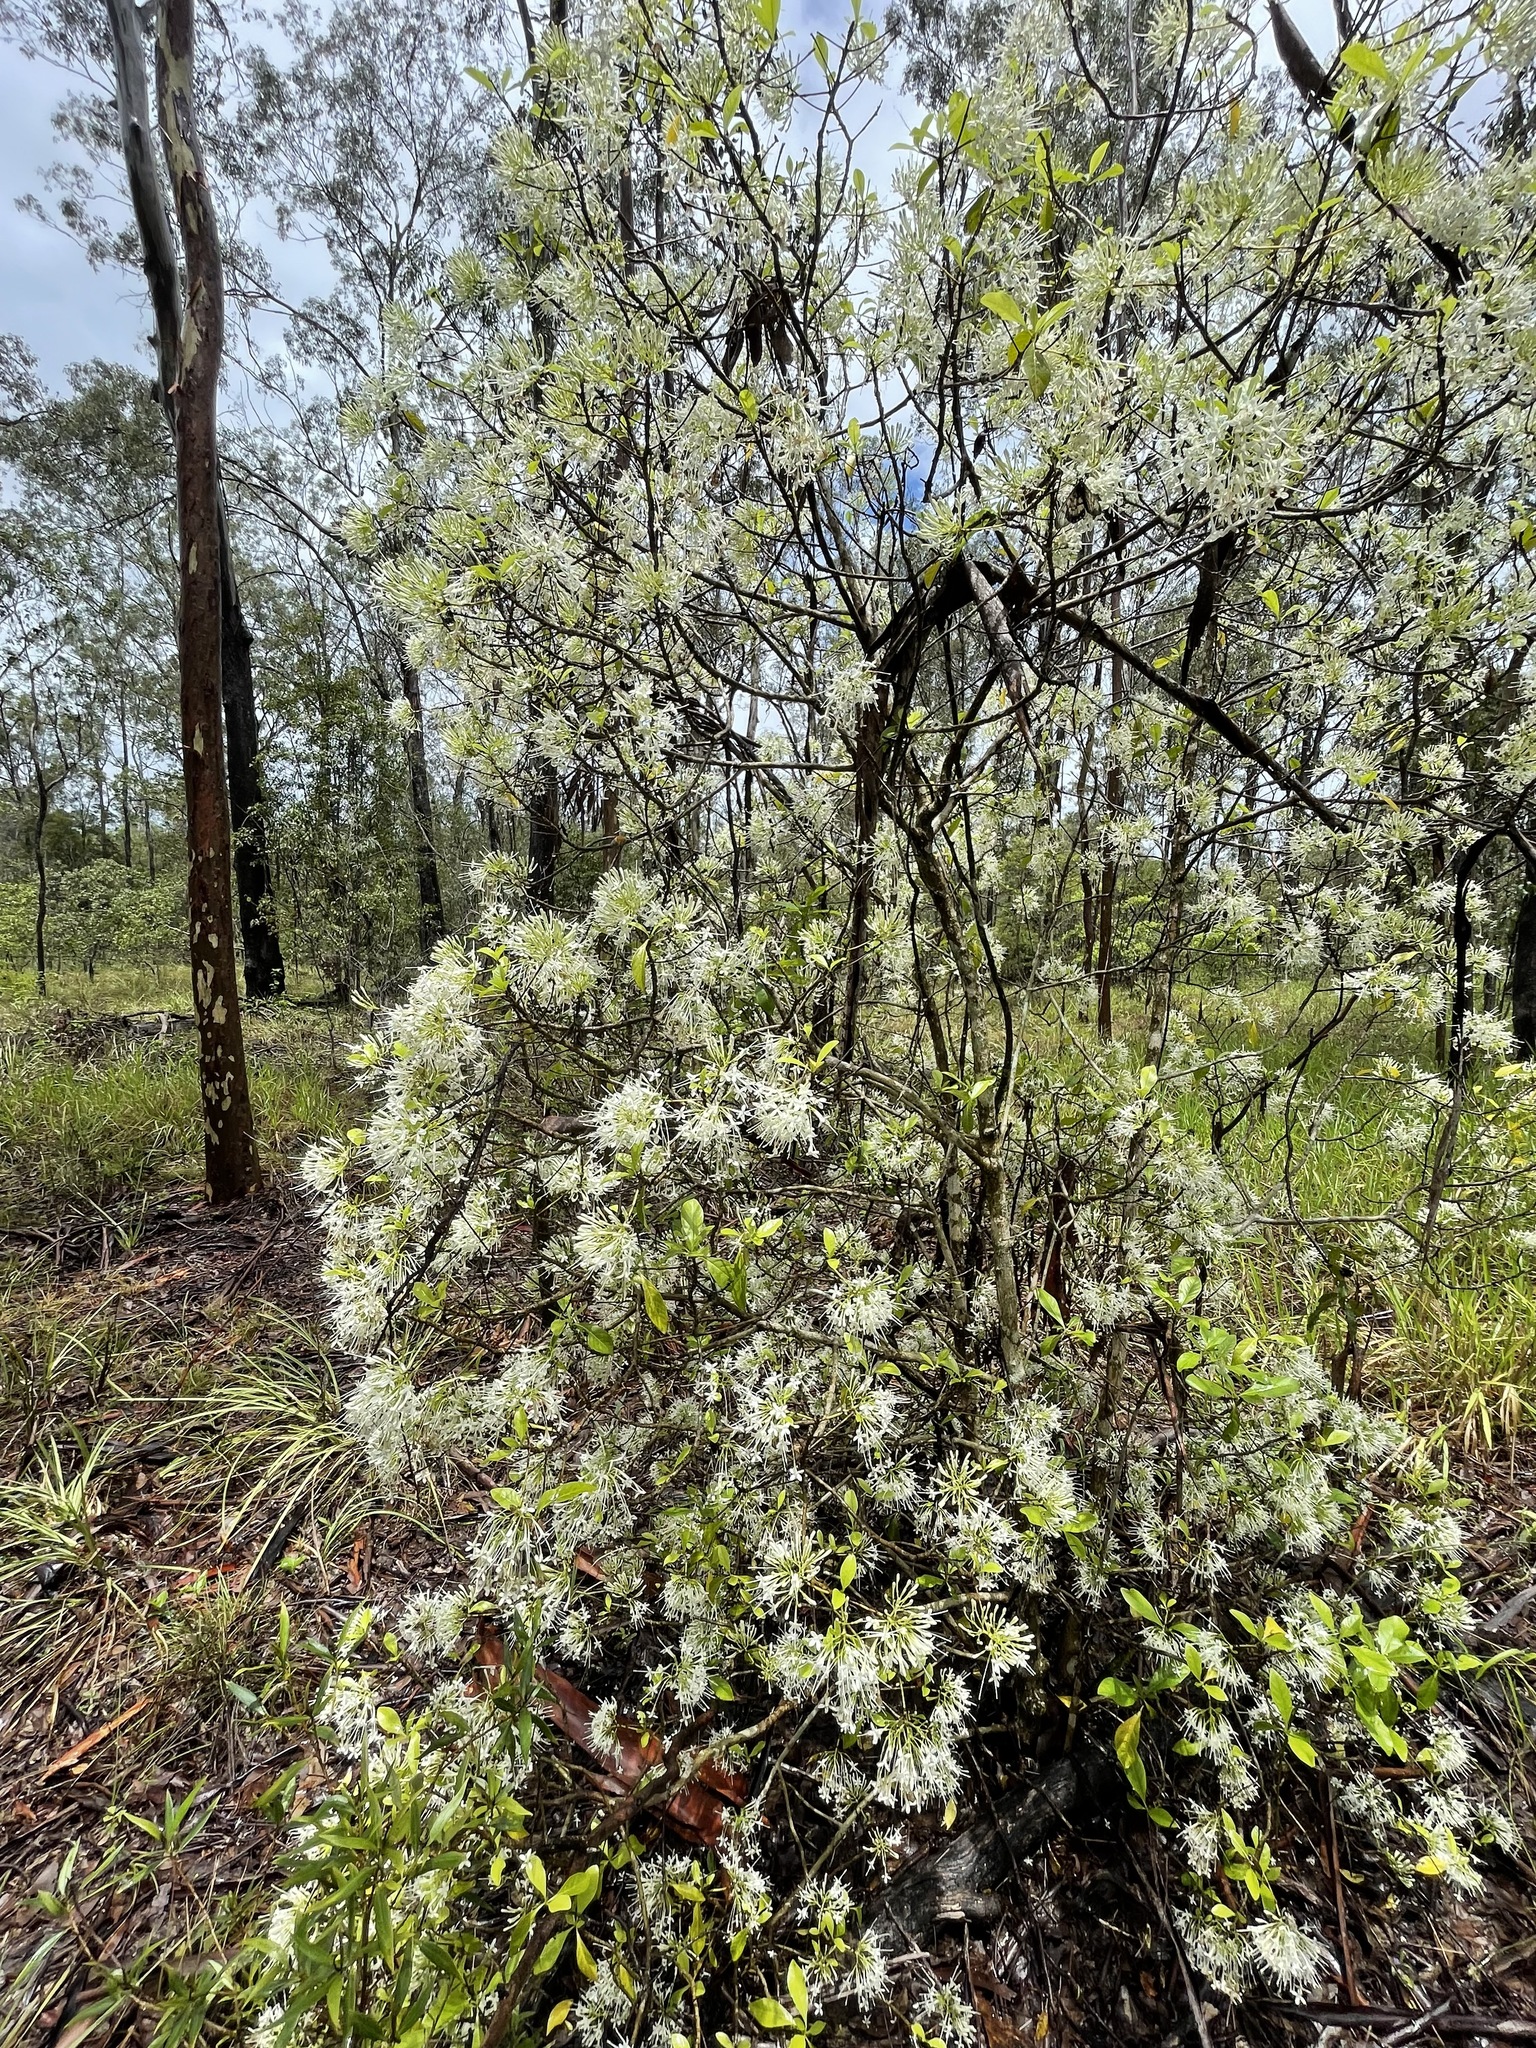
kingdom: Plantae
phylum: Tracheophyta
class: Magnoliopsida
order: Gentianales
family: Rubiaceae
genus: Pavetta
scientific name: Pavetta australiensis
